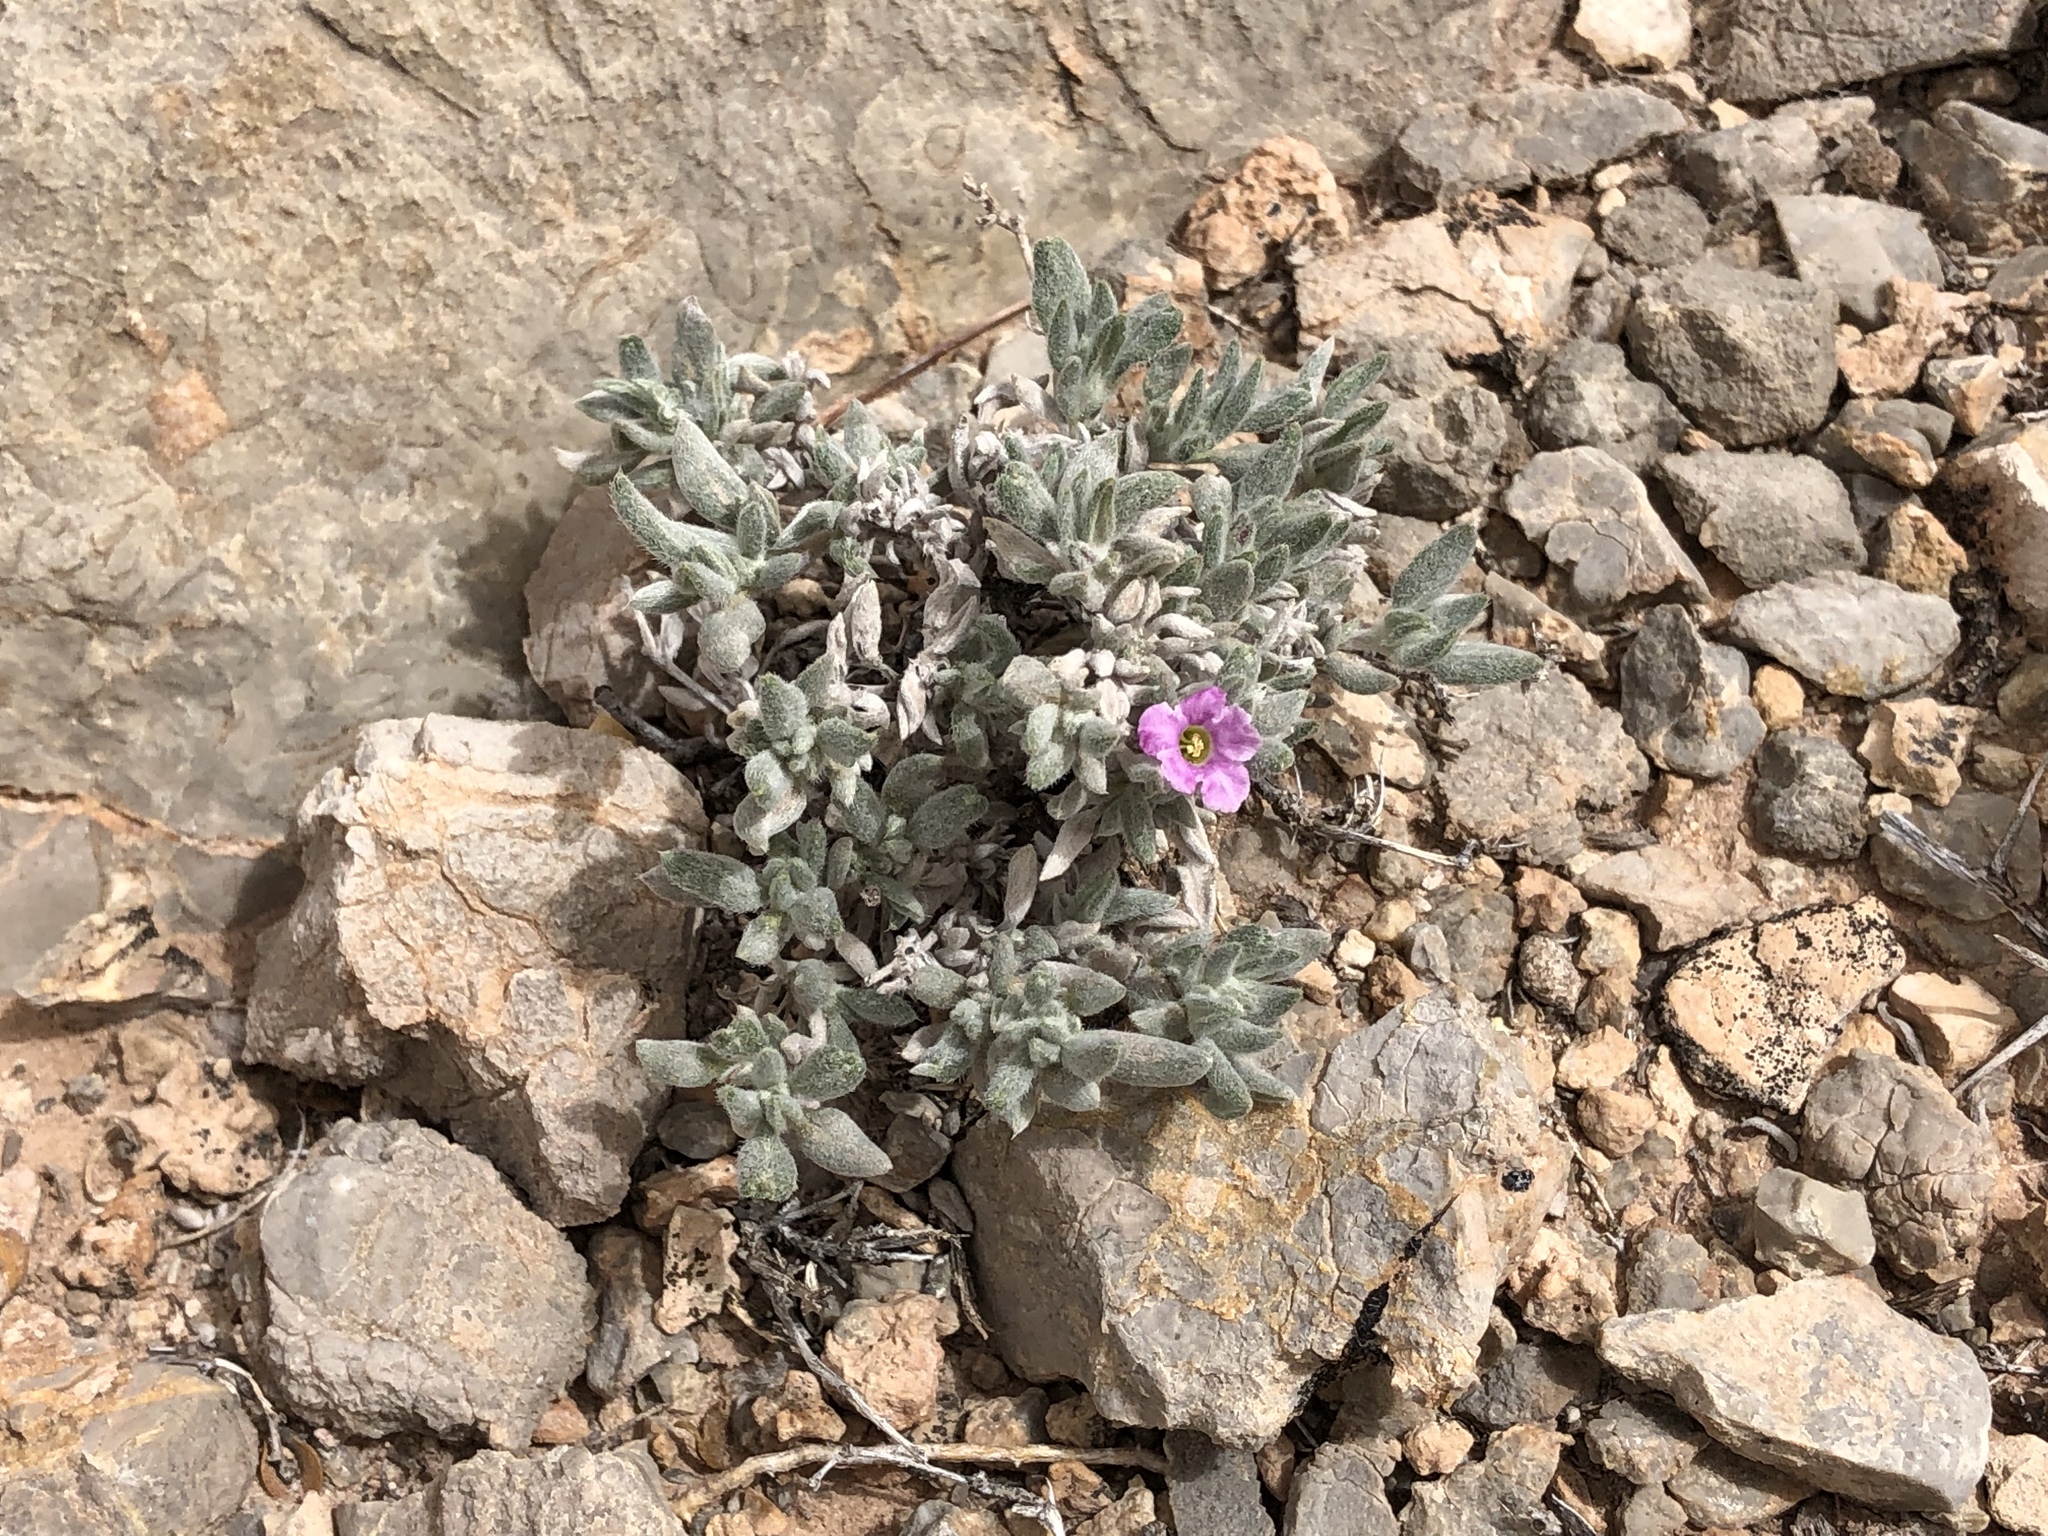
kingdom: Plantae
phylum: Tracheophyta
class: Magnoliopsida
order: Boraginales
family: Ehretiaceae
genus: Tiquilia
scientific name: Tiquilia canescens
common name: Hairy tiquilia
